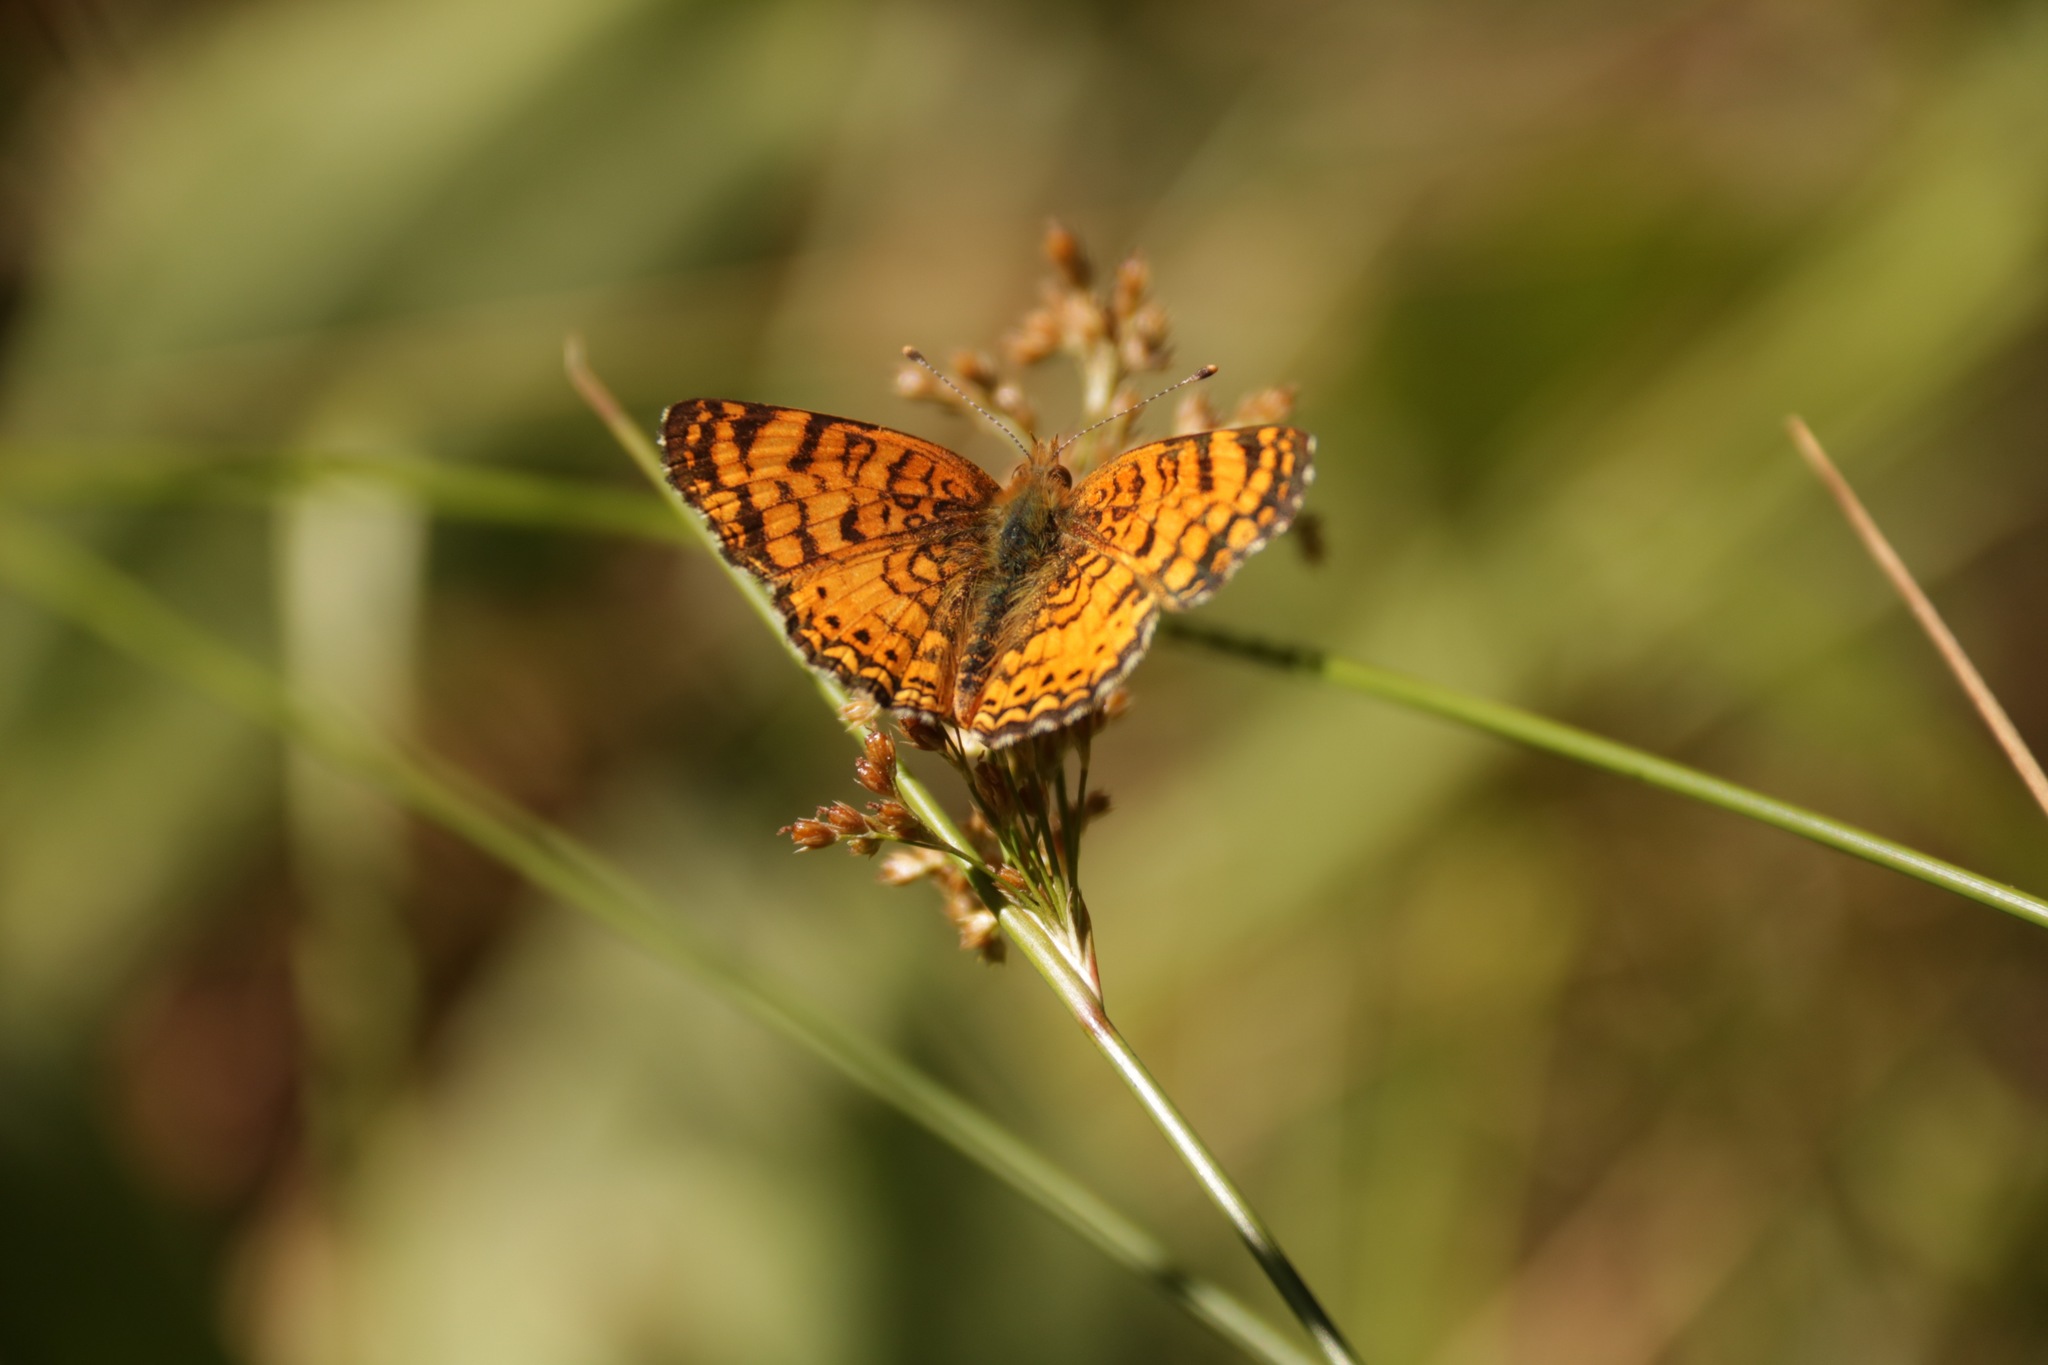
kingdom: Animalia
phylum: Arthropoda
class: Insecta
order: Lepidoptera
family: Nymphalidae
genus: Eresia
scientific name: Eresia aveyrona
